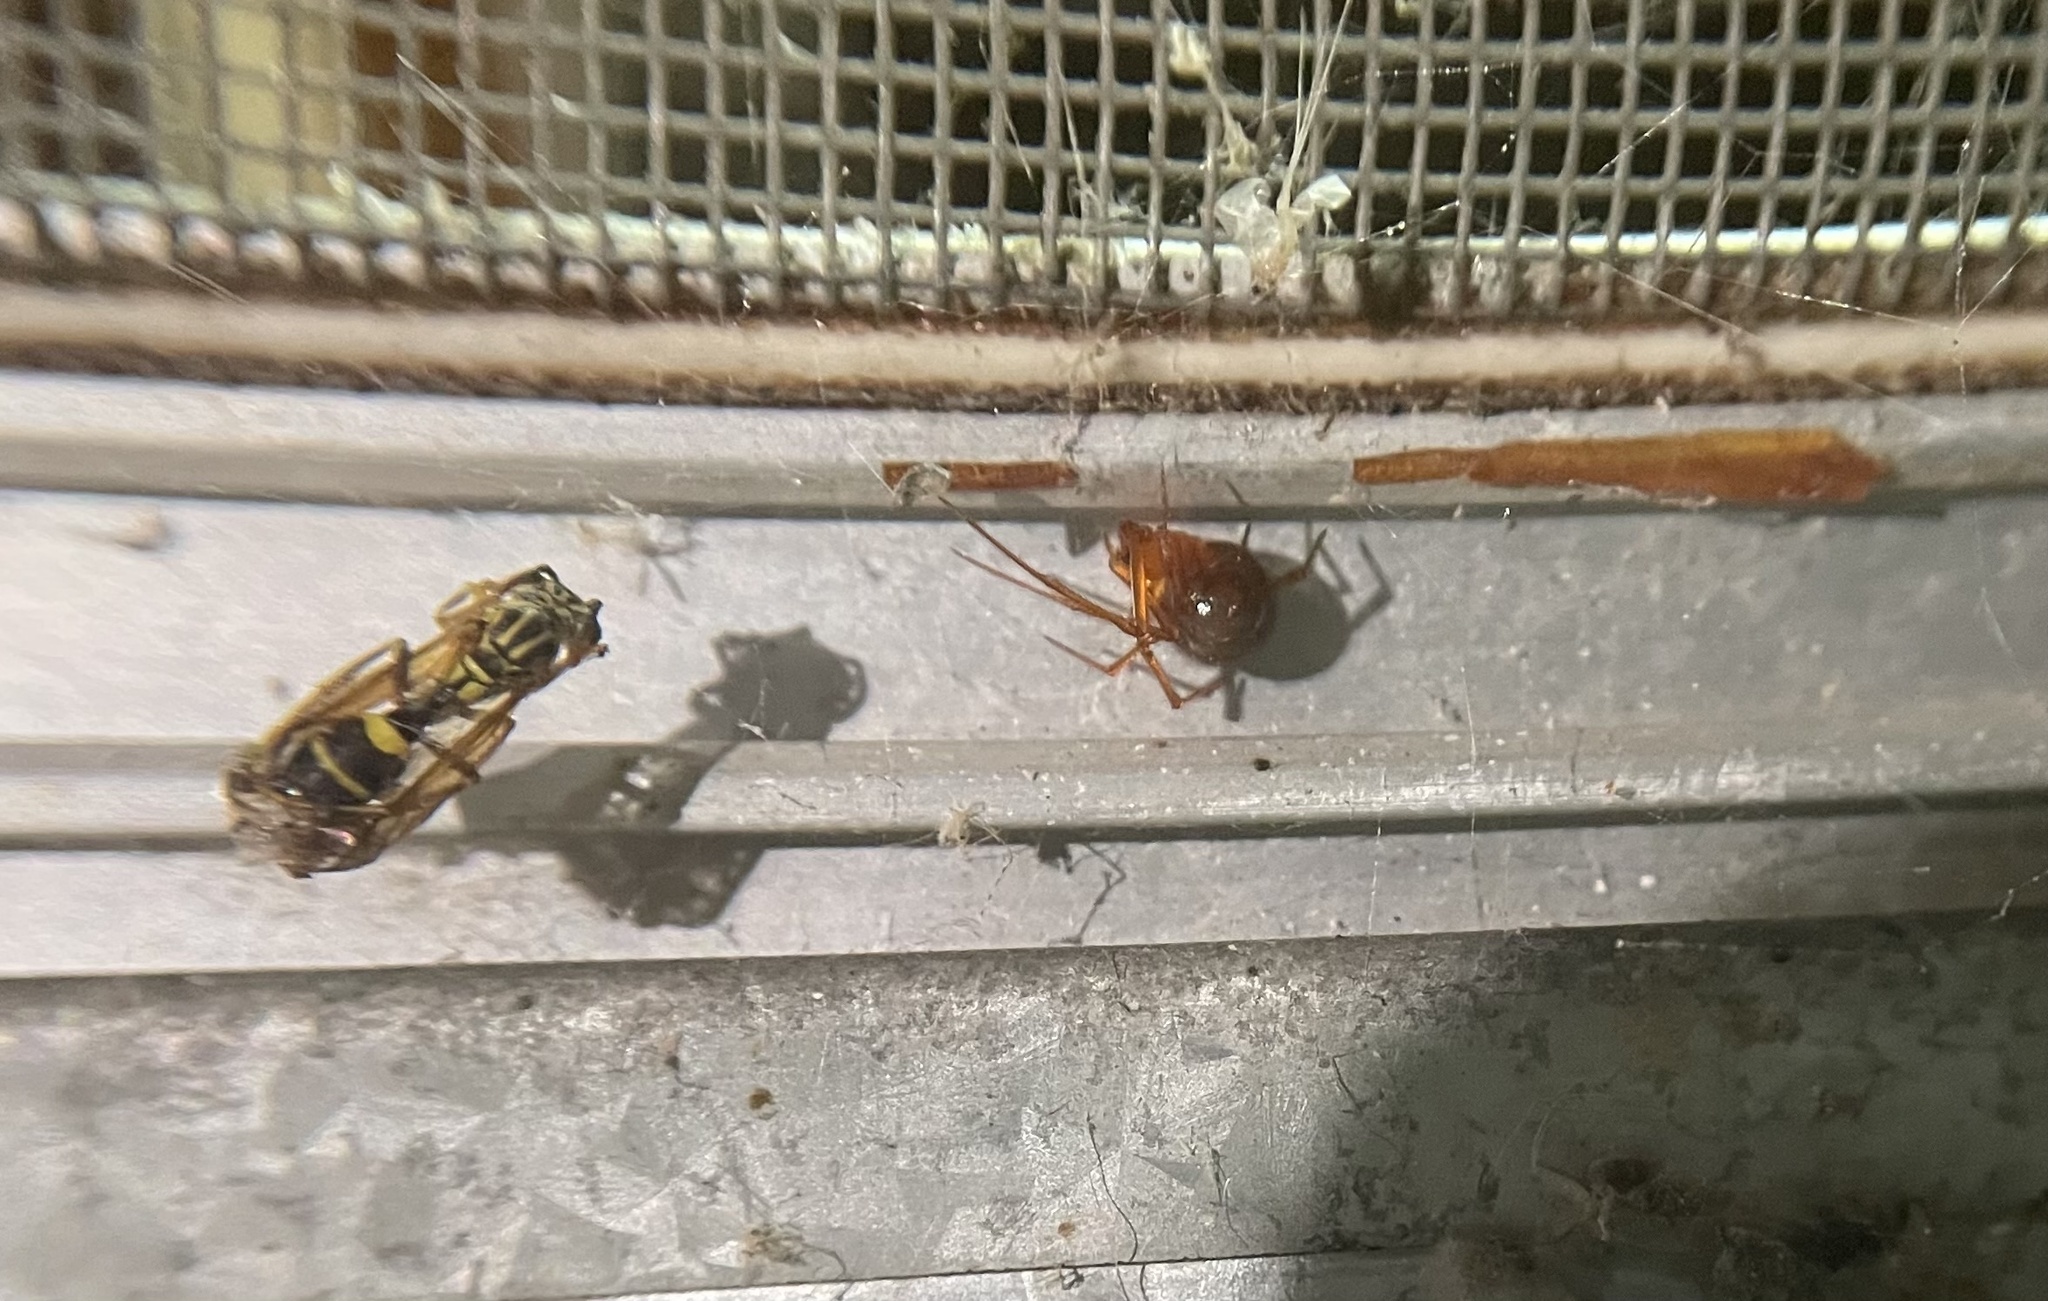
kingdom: Animalia
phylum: Arthropoda
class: Arachnida
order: Araneae
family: Theridiidae
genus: Nesticodes
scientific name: Nesticodes rufipes
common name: Cobweb spiders
